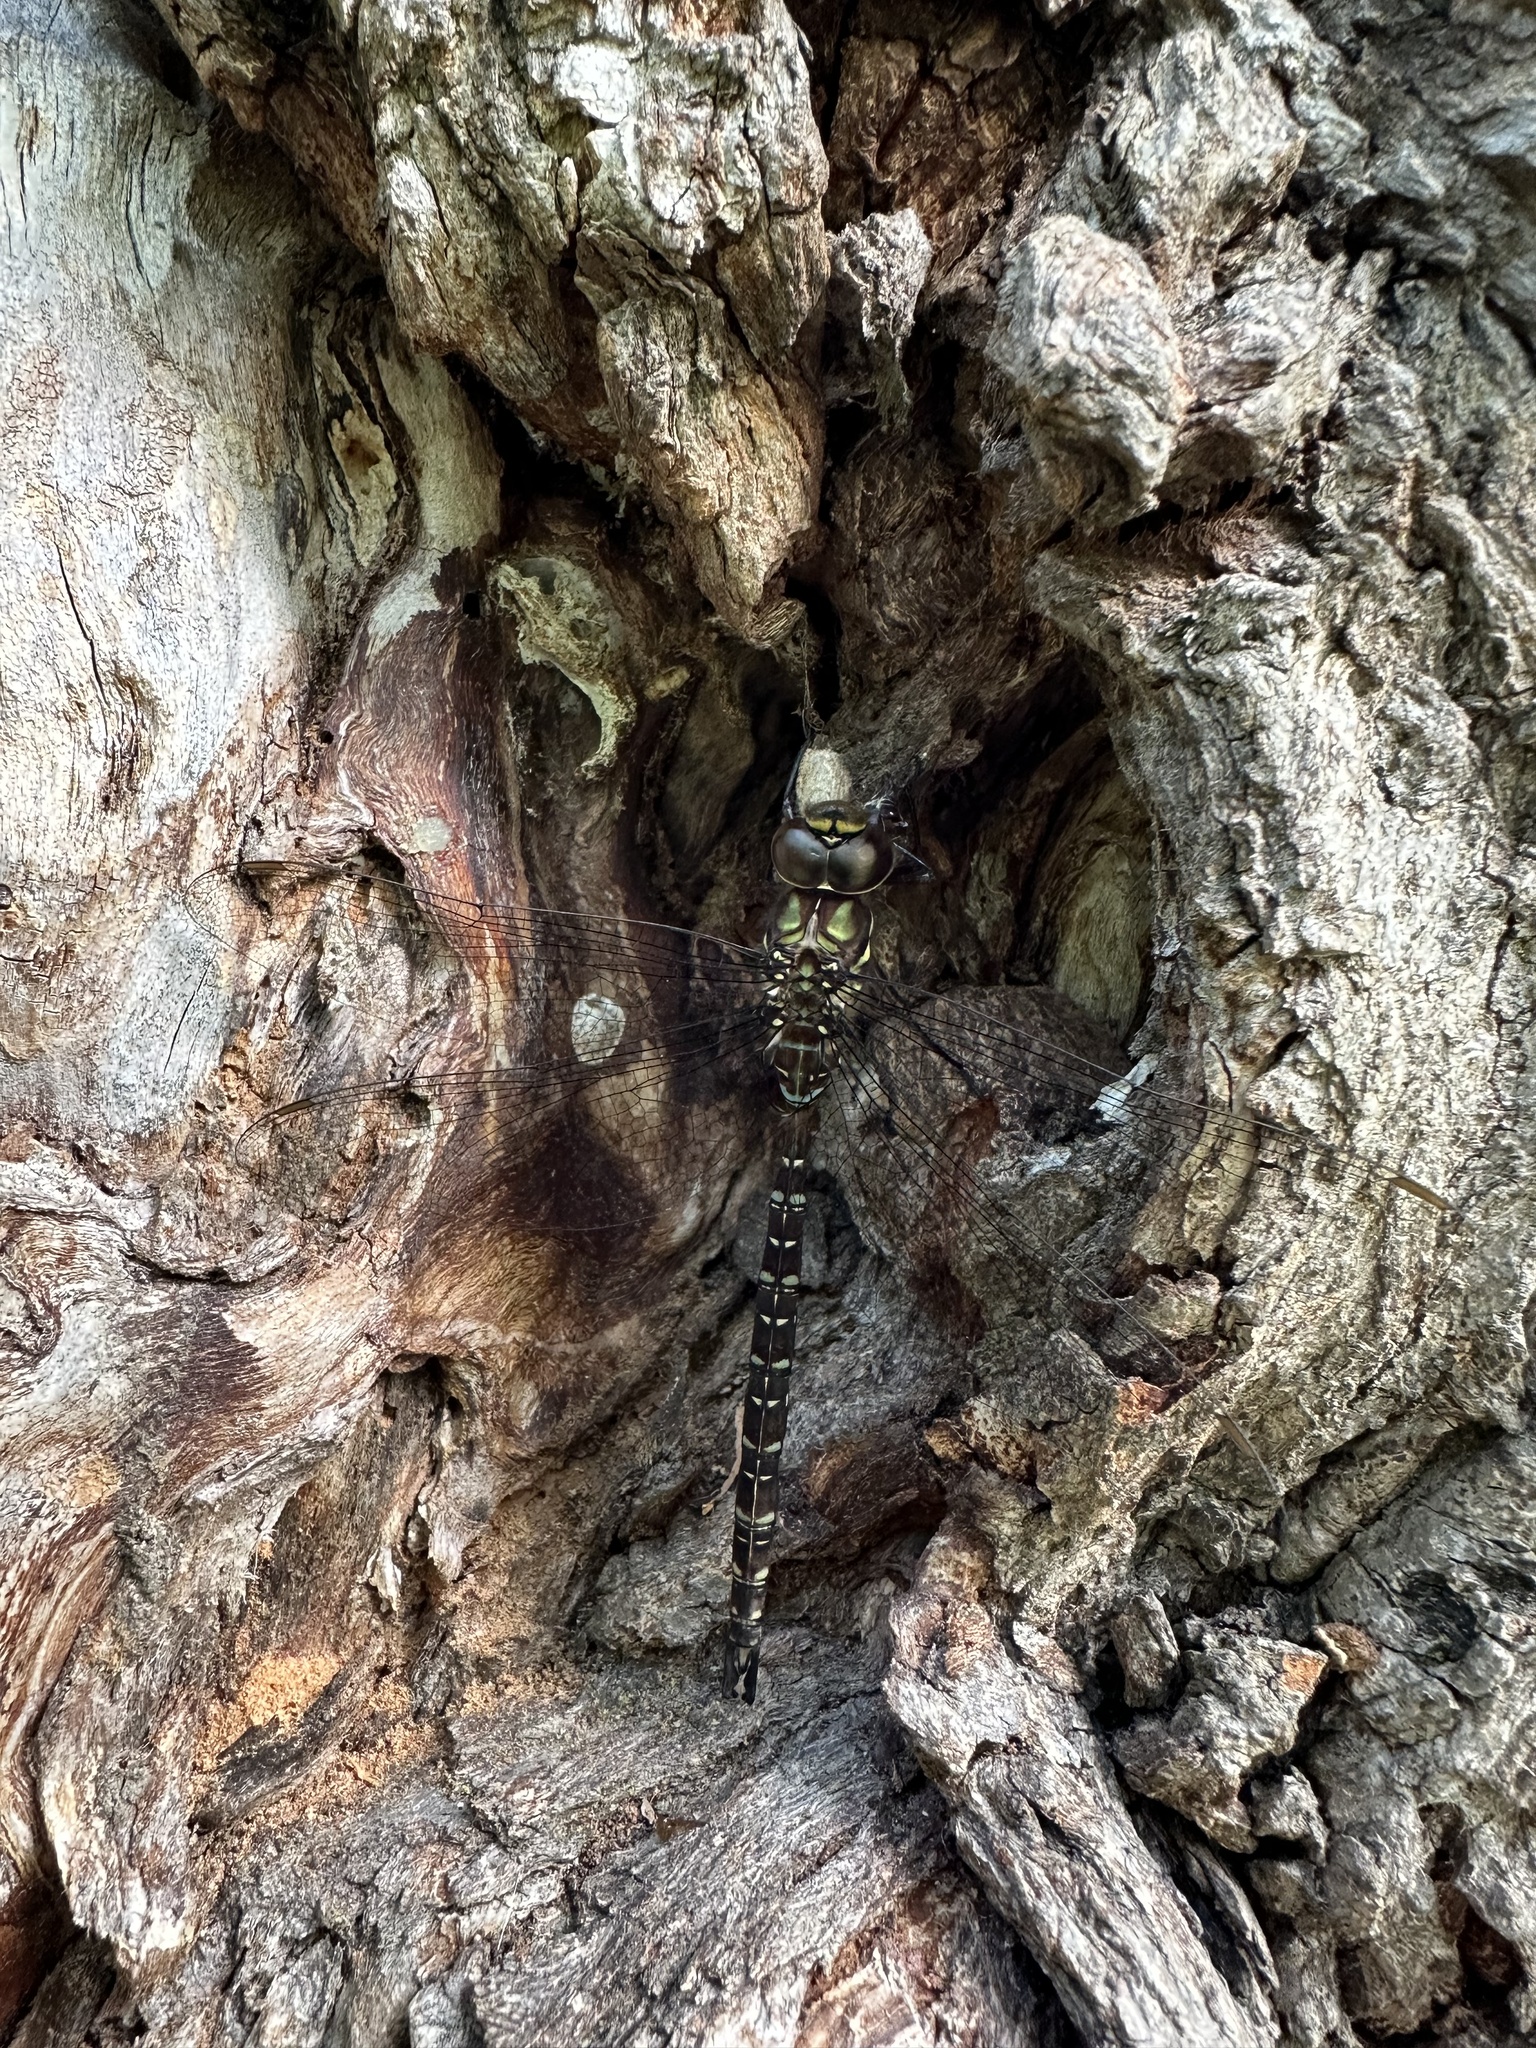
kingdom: Animalia
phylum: Arthropoda
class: Insecta
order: Odonata
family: Aeshnidae
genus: Aeshna
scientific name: Aeshna umbrosa
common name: Shadow darner
